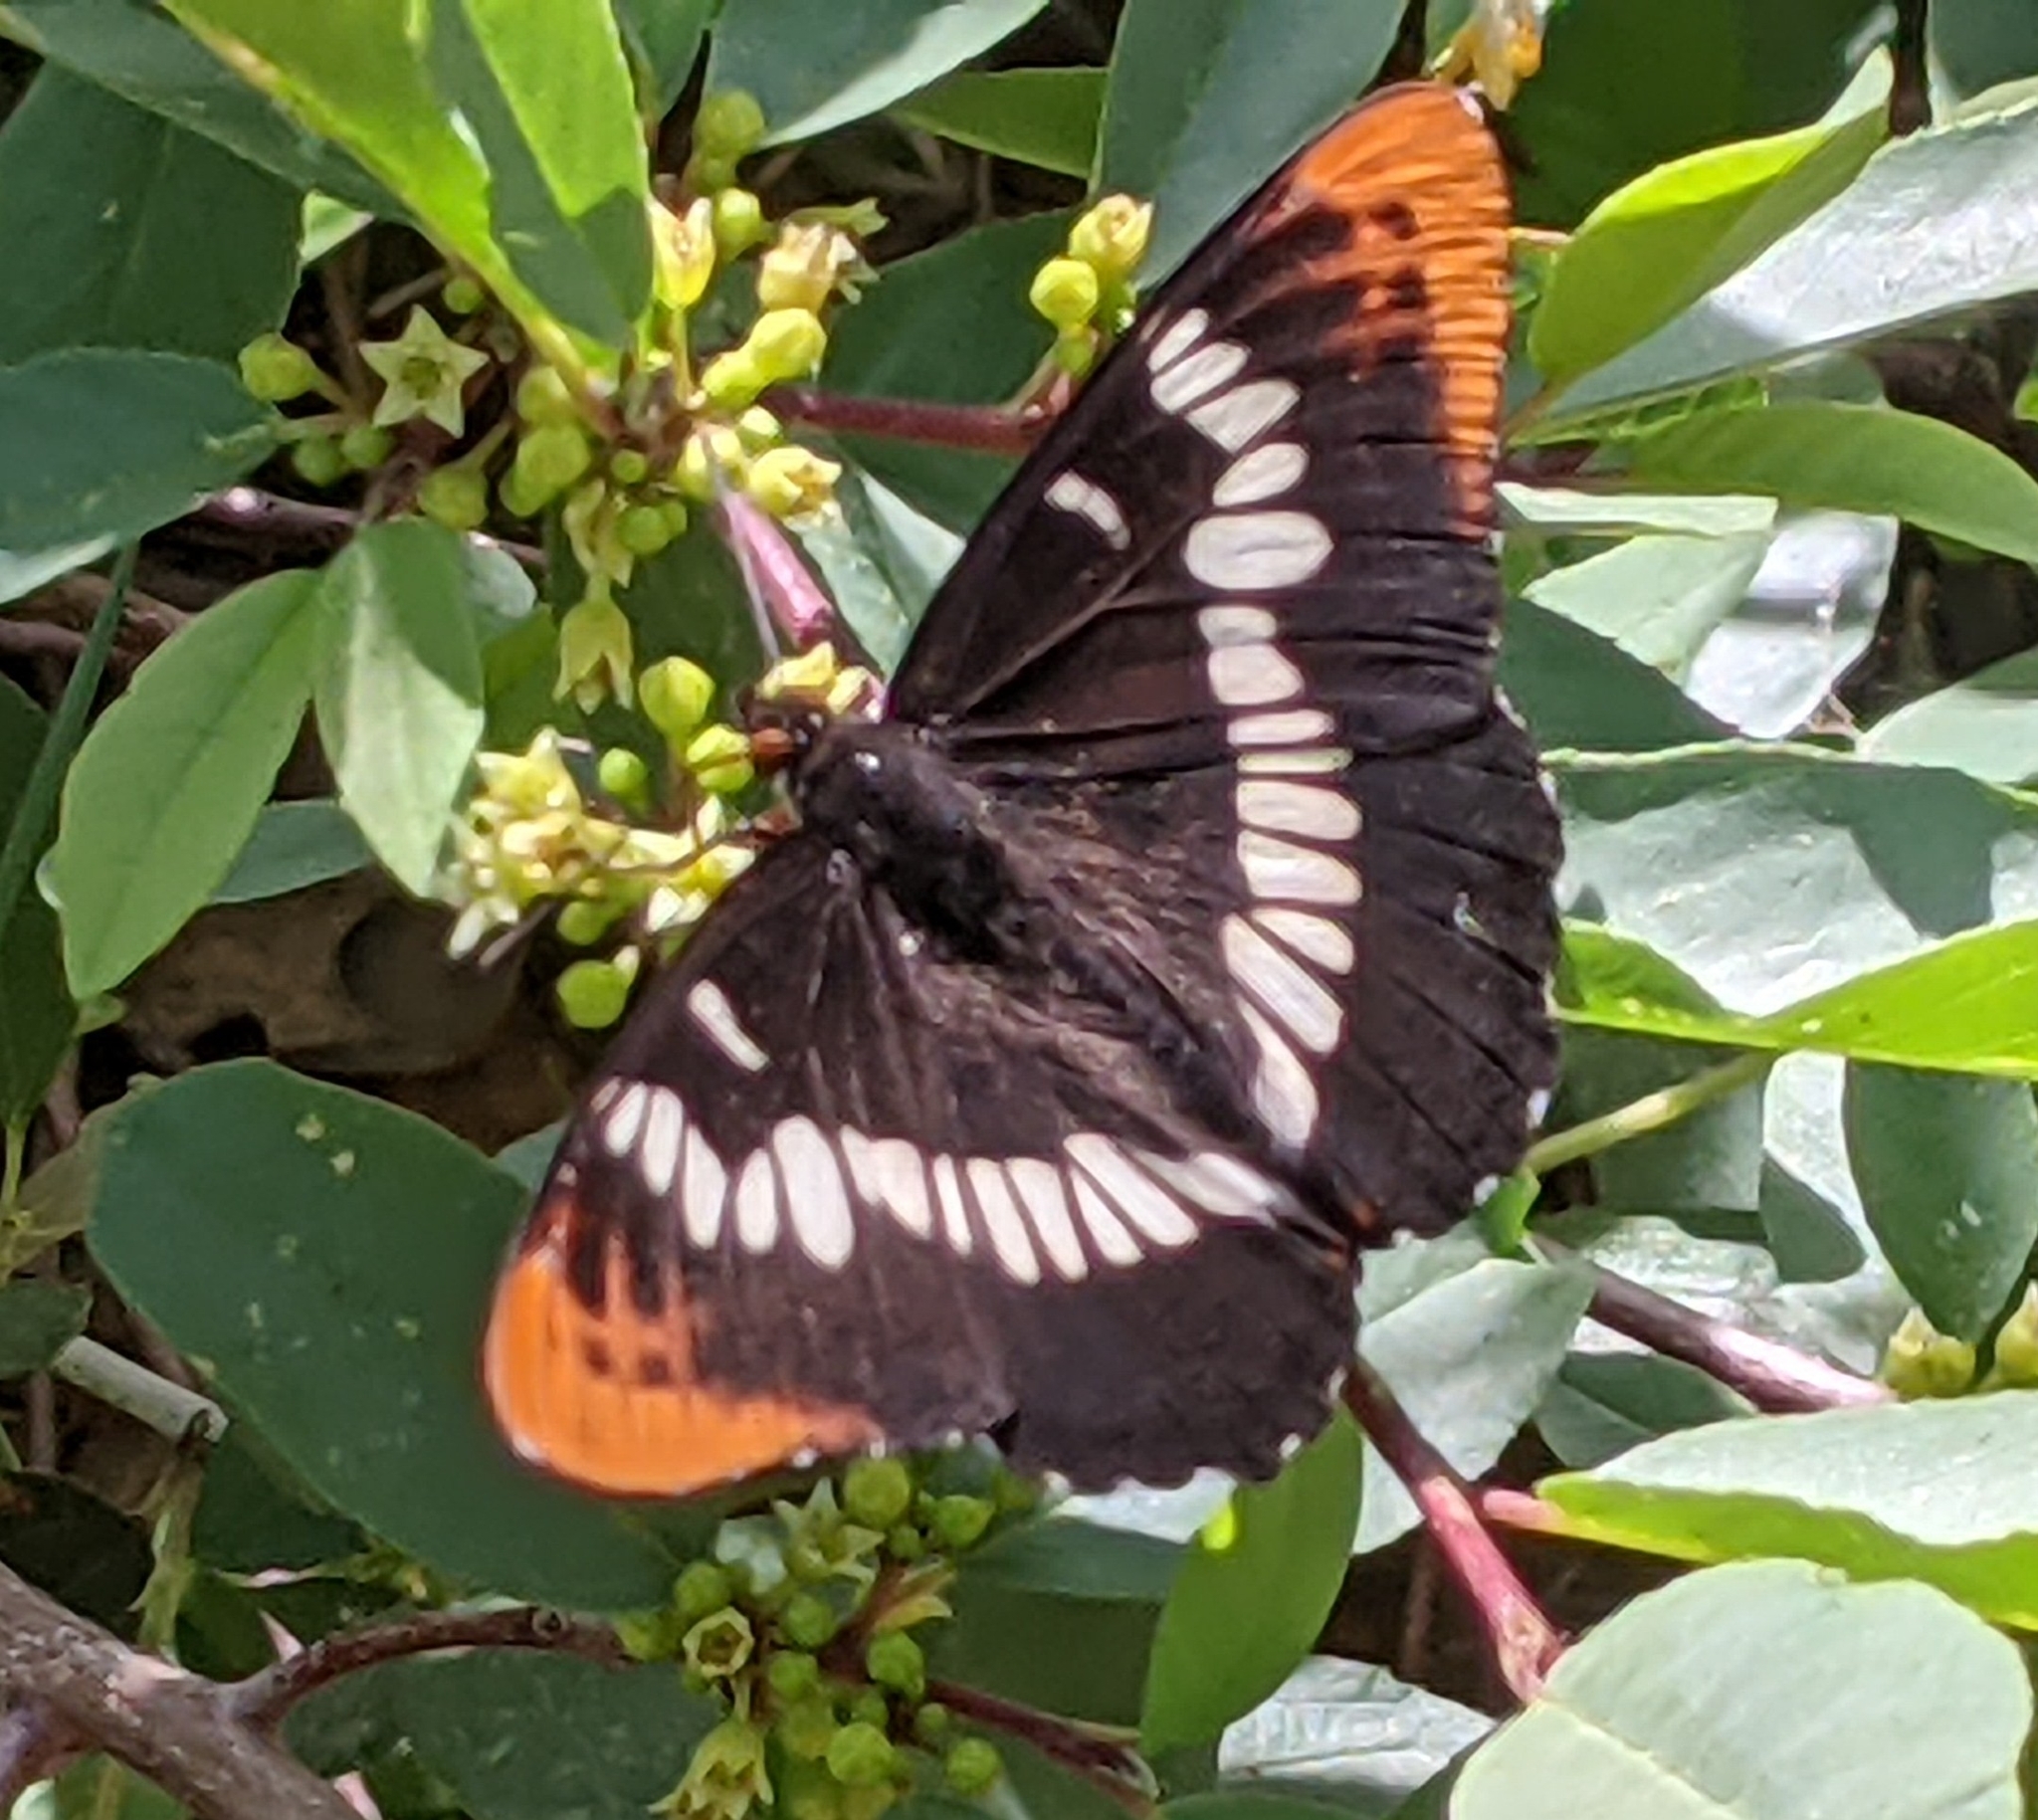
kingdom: Animalia
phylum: Arthropoda
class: Insecta
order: Lepidoptera
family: Nymphalidae
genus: Limenitis
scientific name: Limenitis lorquini
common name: Lorquin's admiral
